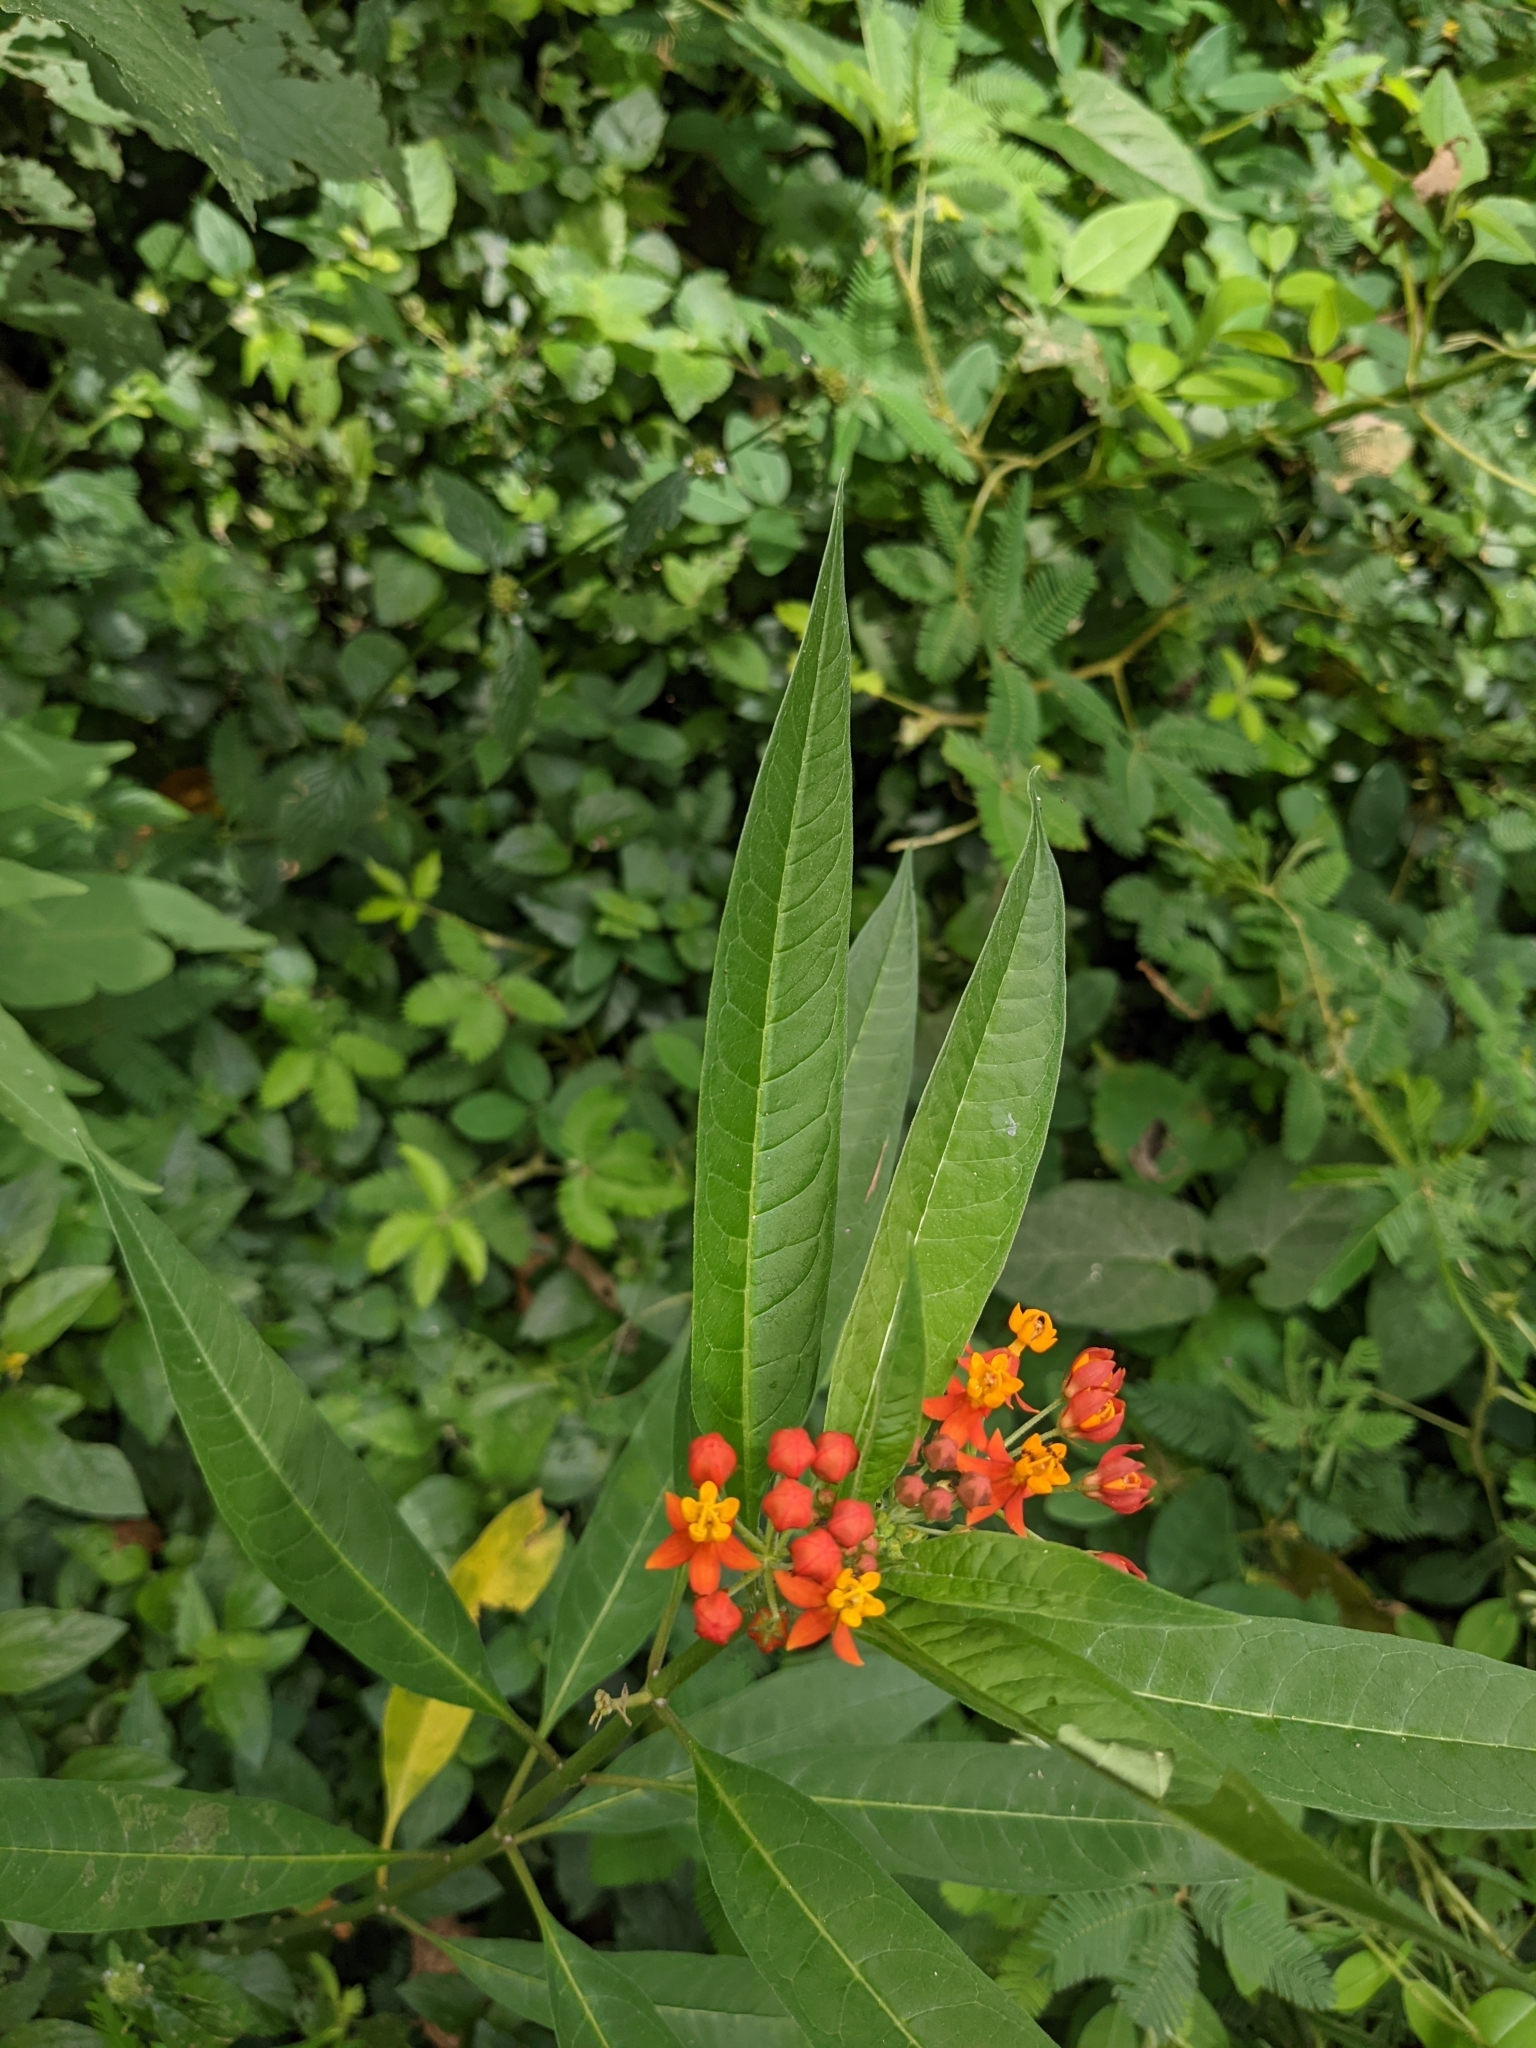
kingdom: Plantae
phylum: Tracheophyta
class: Magnoliopsida
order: Gentianales
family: Apocynaceae
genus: Asclepias
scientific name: Asclepias curassavica
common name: Bloodflower
